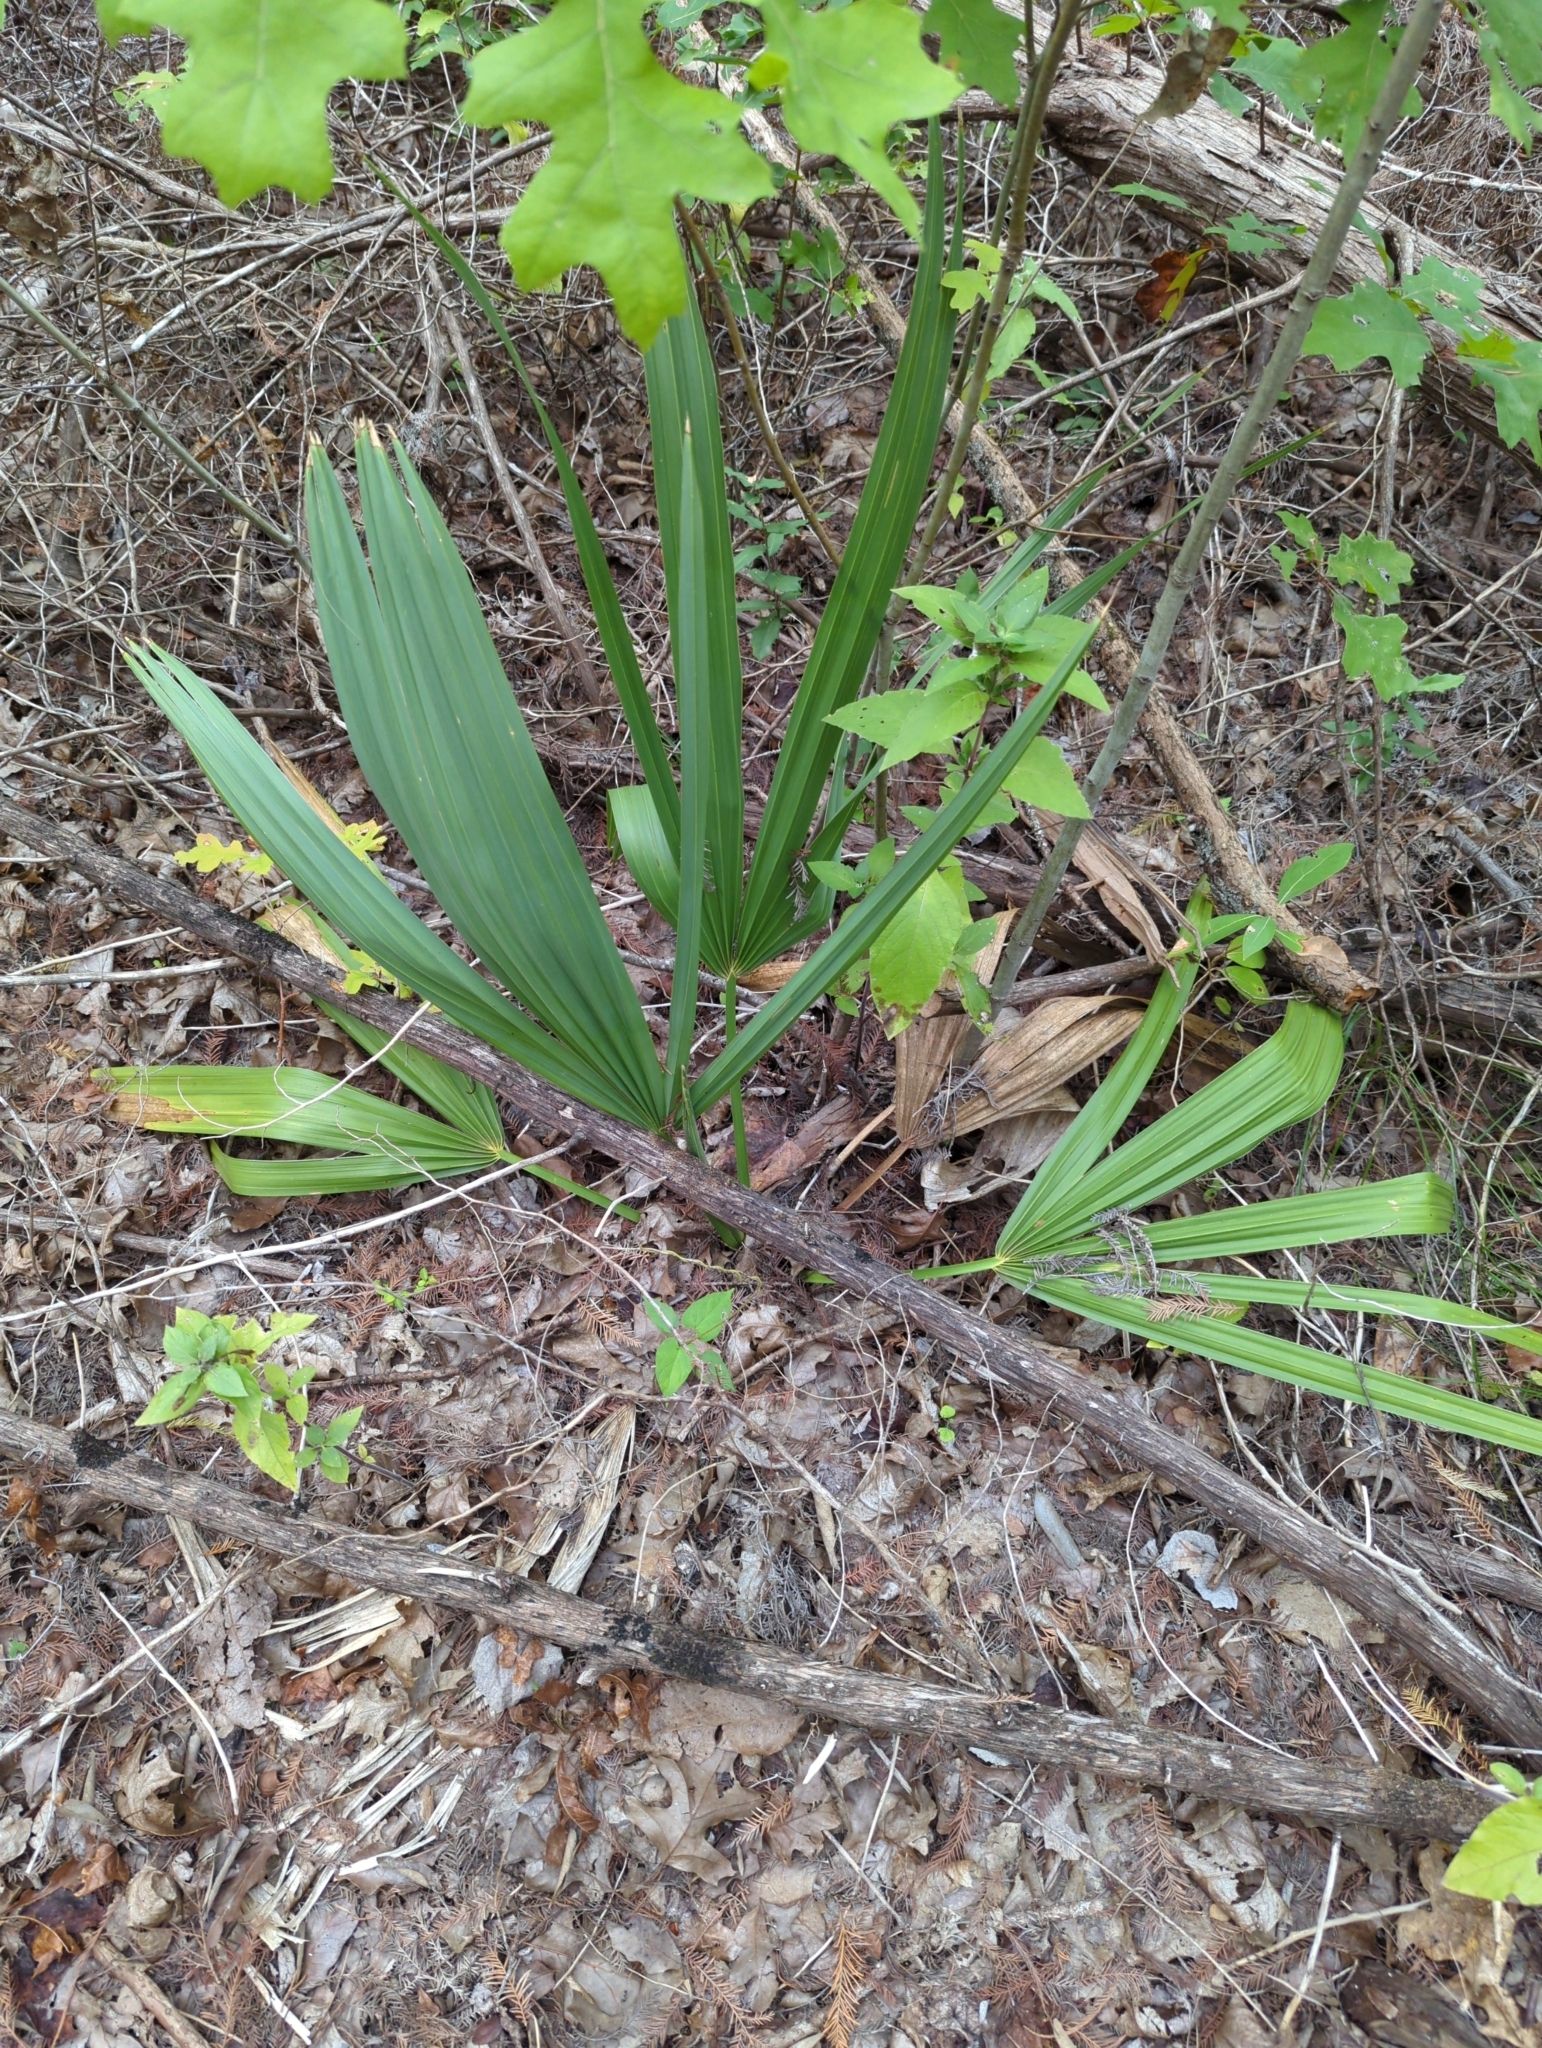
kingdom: Plantae
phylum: Tracheophyta
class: Liliopsida
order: Arecales
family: Arecaceae
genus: Sabal
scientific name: Sabal minor
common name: Dwarf palmetto
